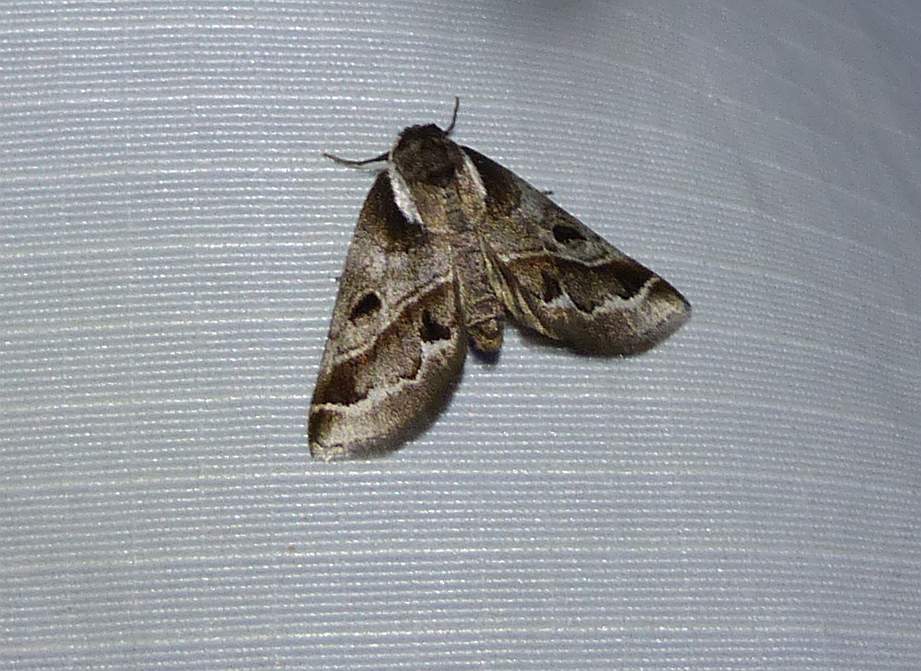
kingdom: Animalia
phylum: Arthropoda
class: Insecta
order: Lepidoptera
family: Nolidae
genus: Baileya
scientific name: Baileya doubledayi
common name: Doubleday's baileya moth
